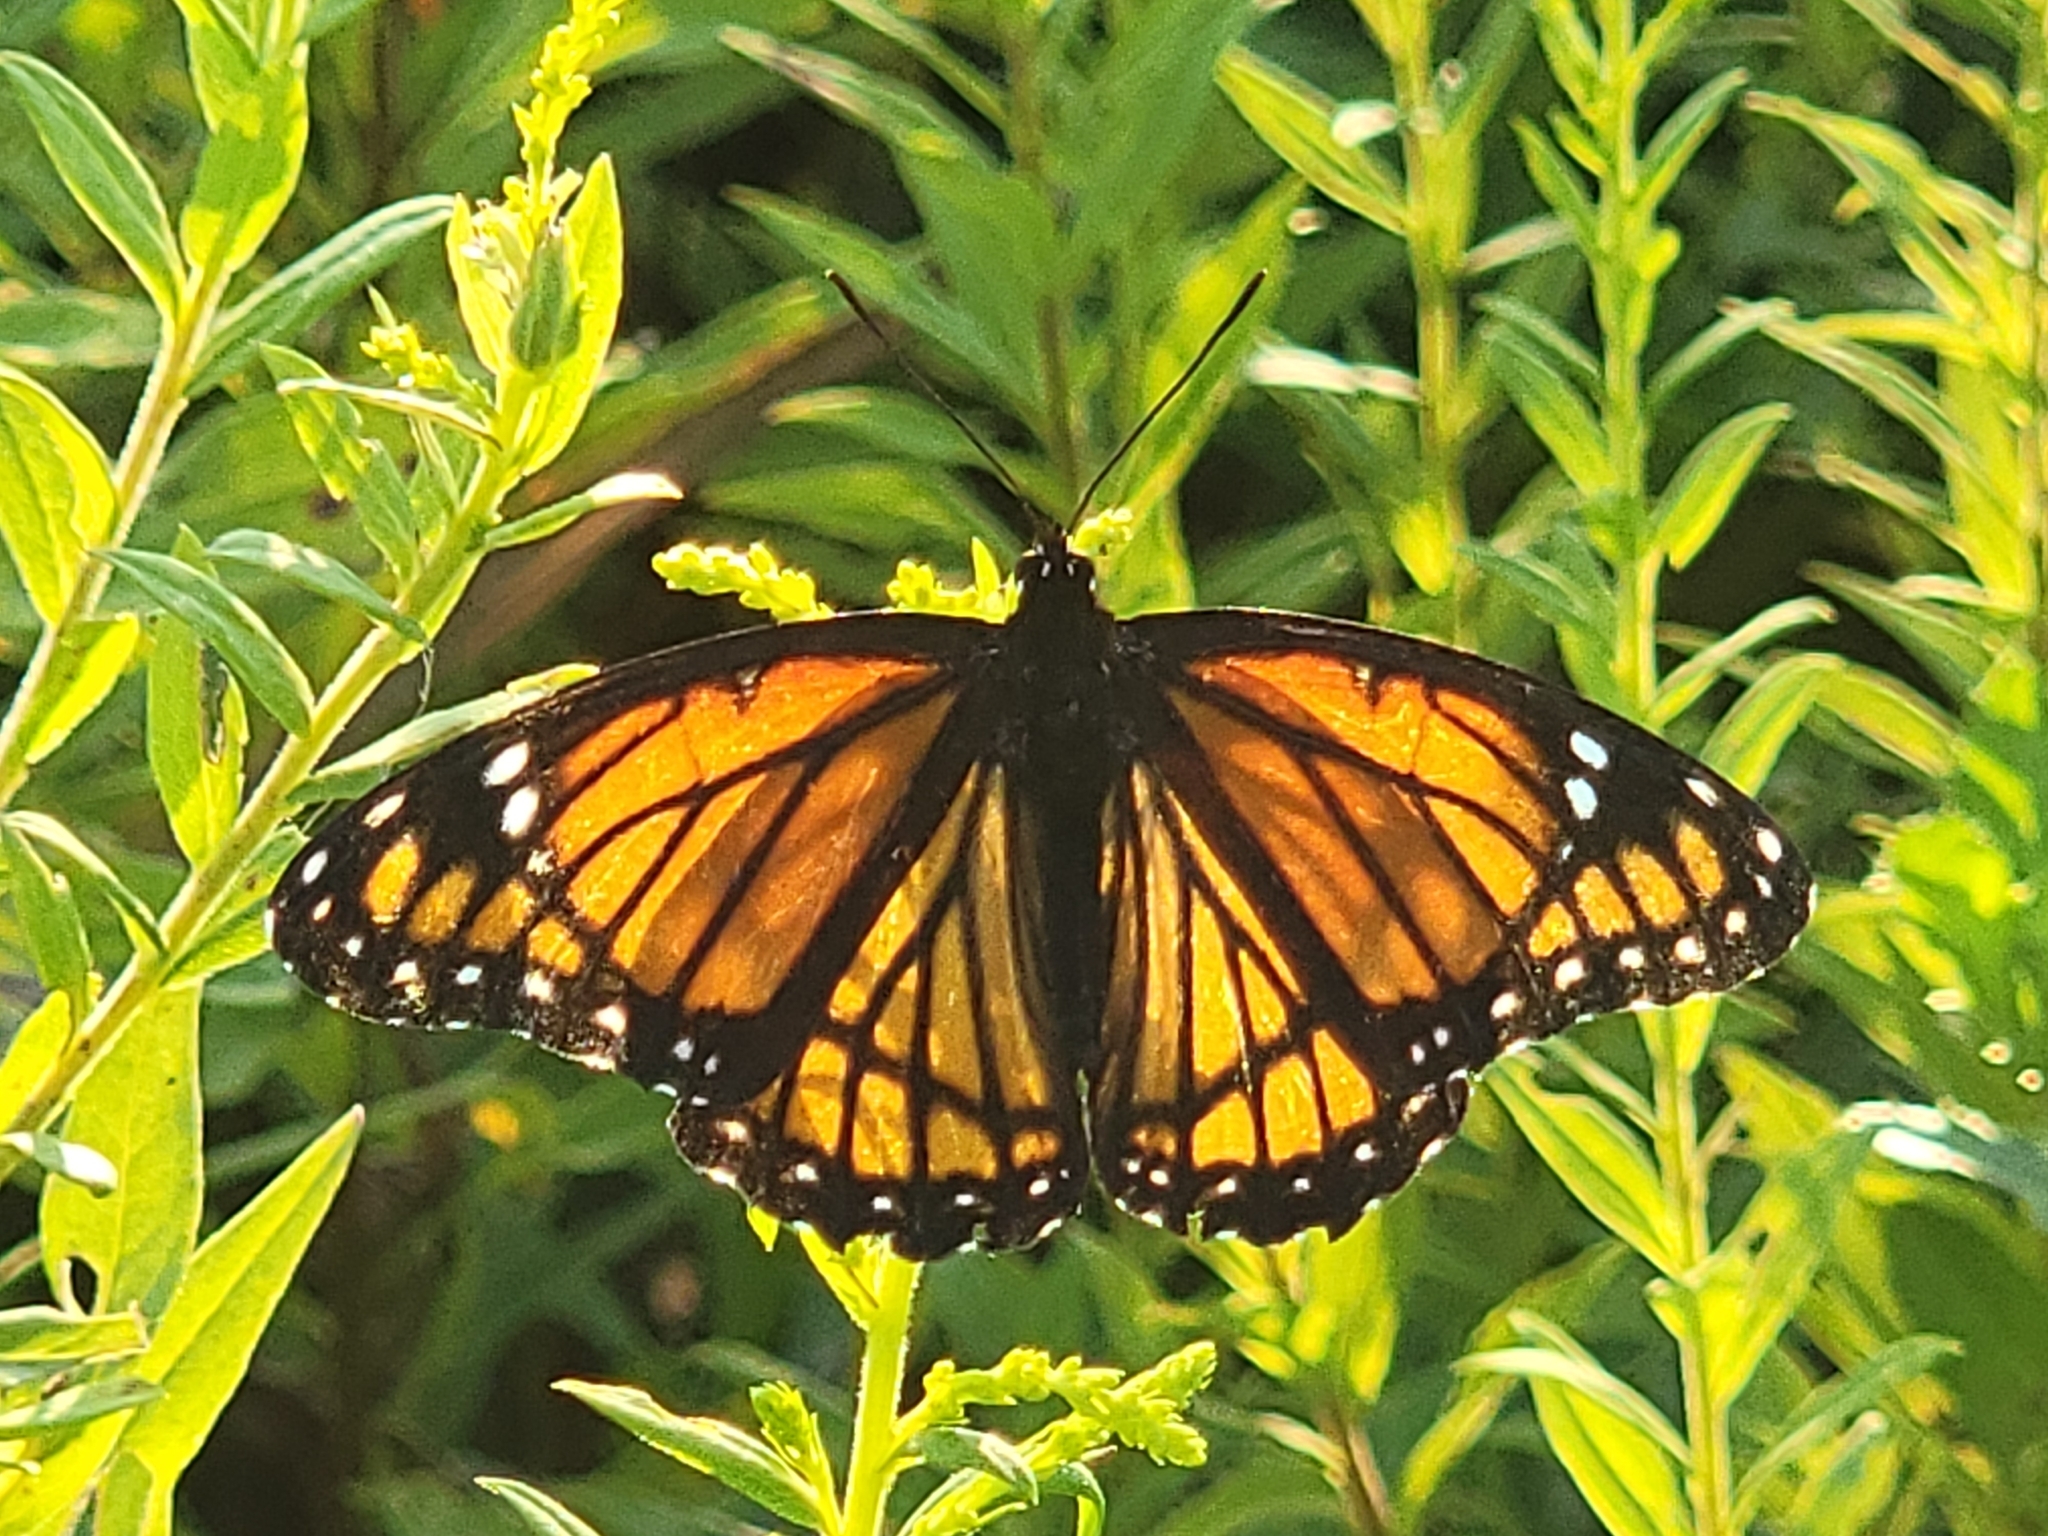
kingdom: Animalia
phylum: Arthropoda
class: Insecta
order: Lepidoptera
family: Nymphalidae
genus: Limenitis
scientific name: Limenitis archippus
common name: Viceroy
